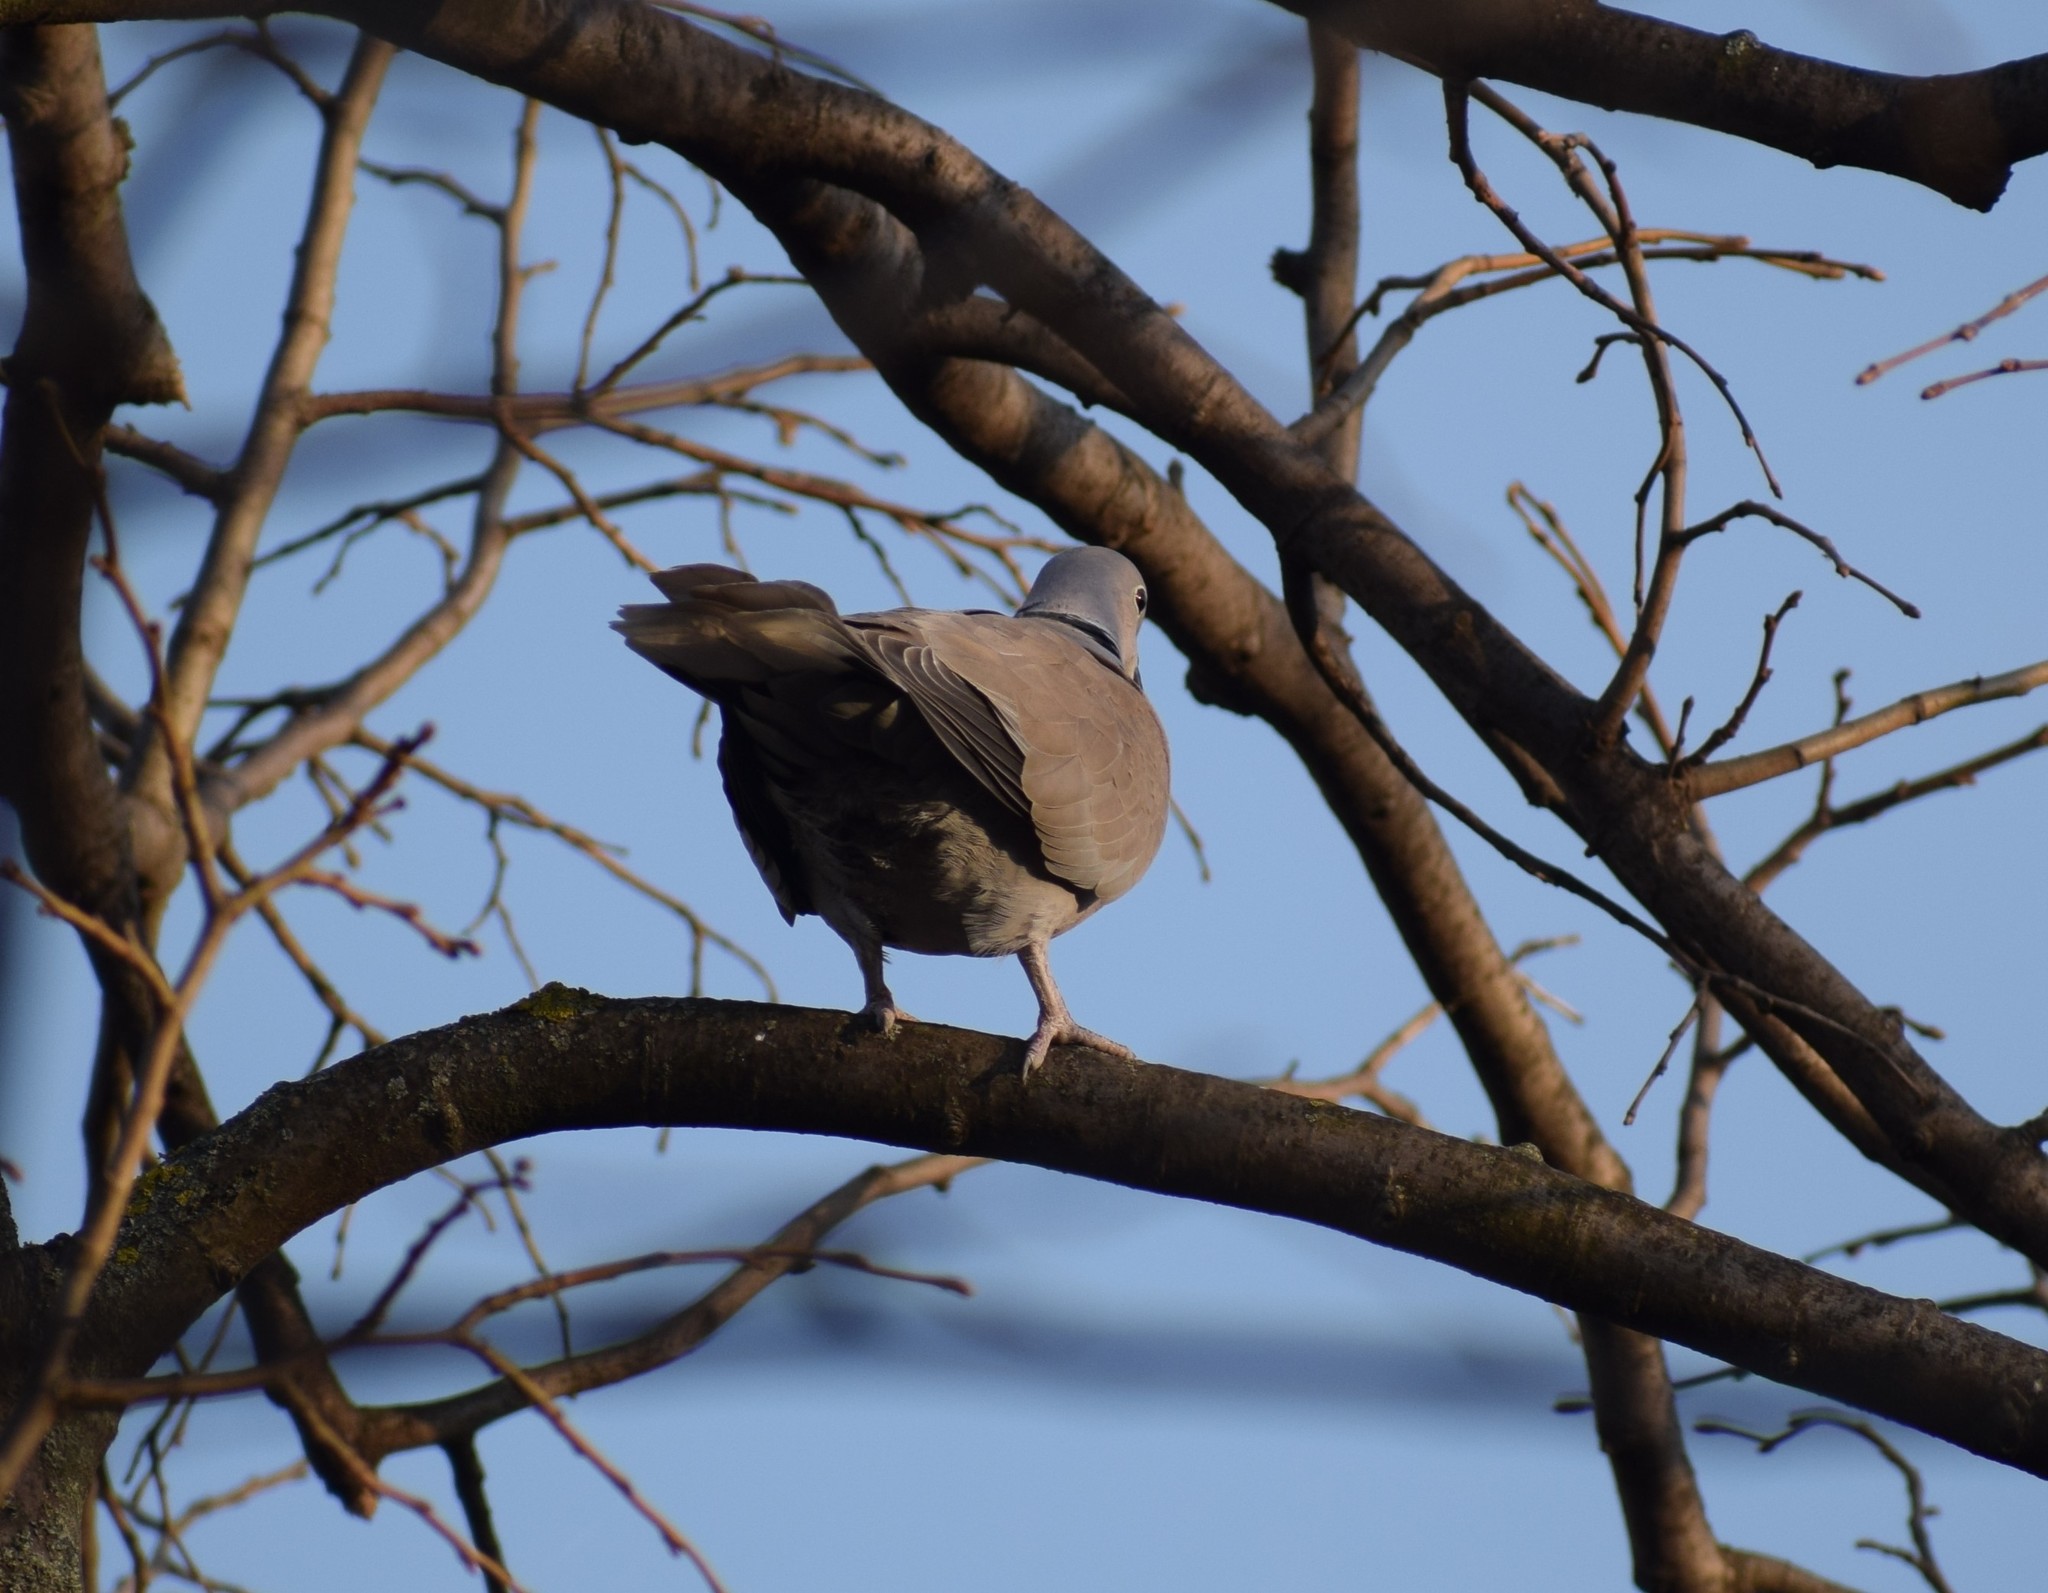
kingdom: Animalia
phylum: Chordata
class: Aves
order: Columbiformes
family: Columbidae
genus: Streptopelia
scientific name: Streptopelia decaocto
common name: Eurasian collared dove
